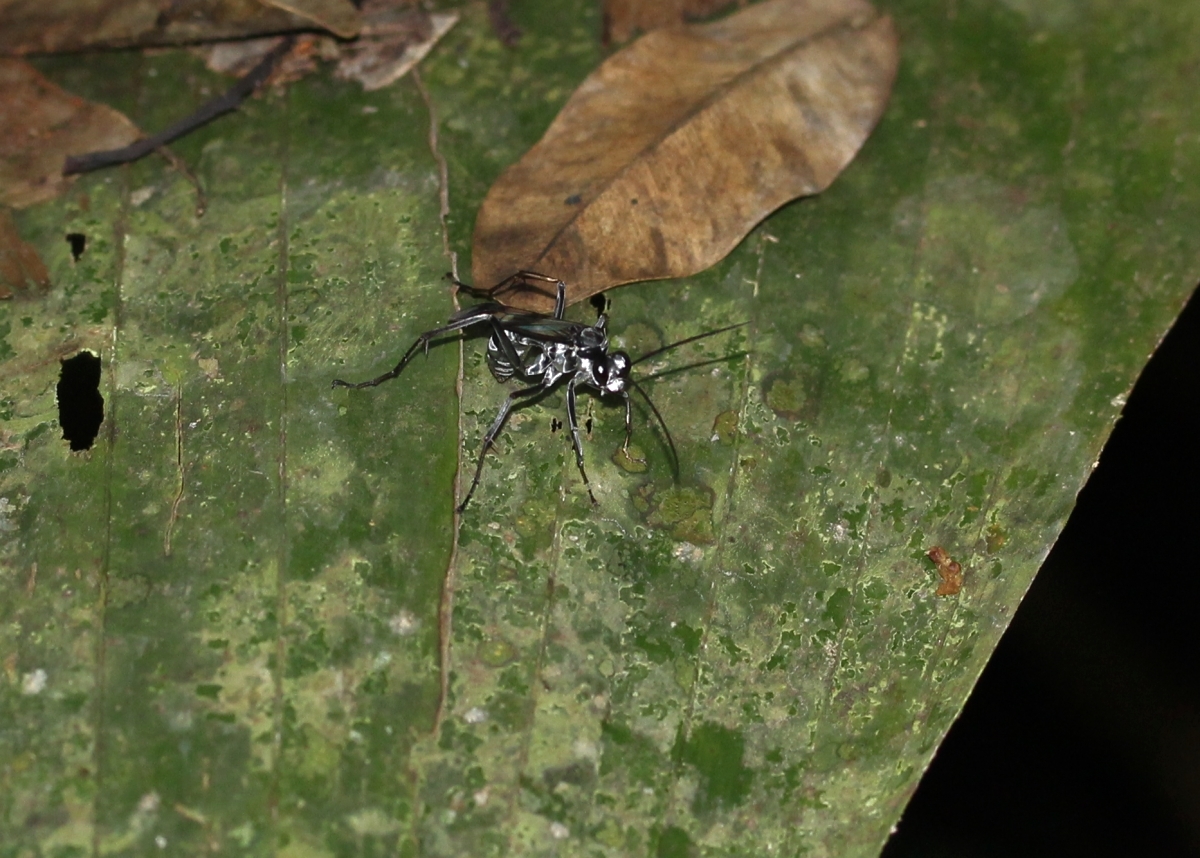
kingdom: Animalia
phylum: Arthropoda
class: Insecta
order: Hymenoptera
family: Pompilidae
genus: Priochilus
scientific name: Priochilus
